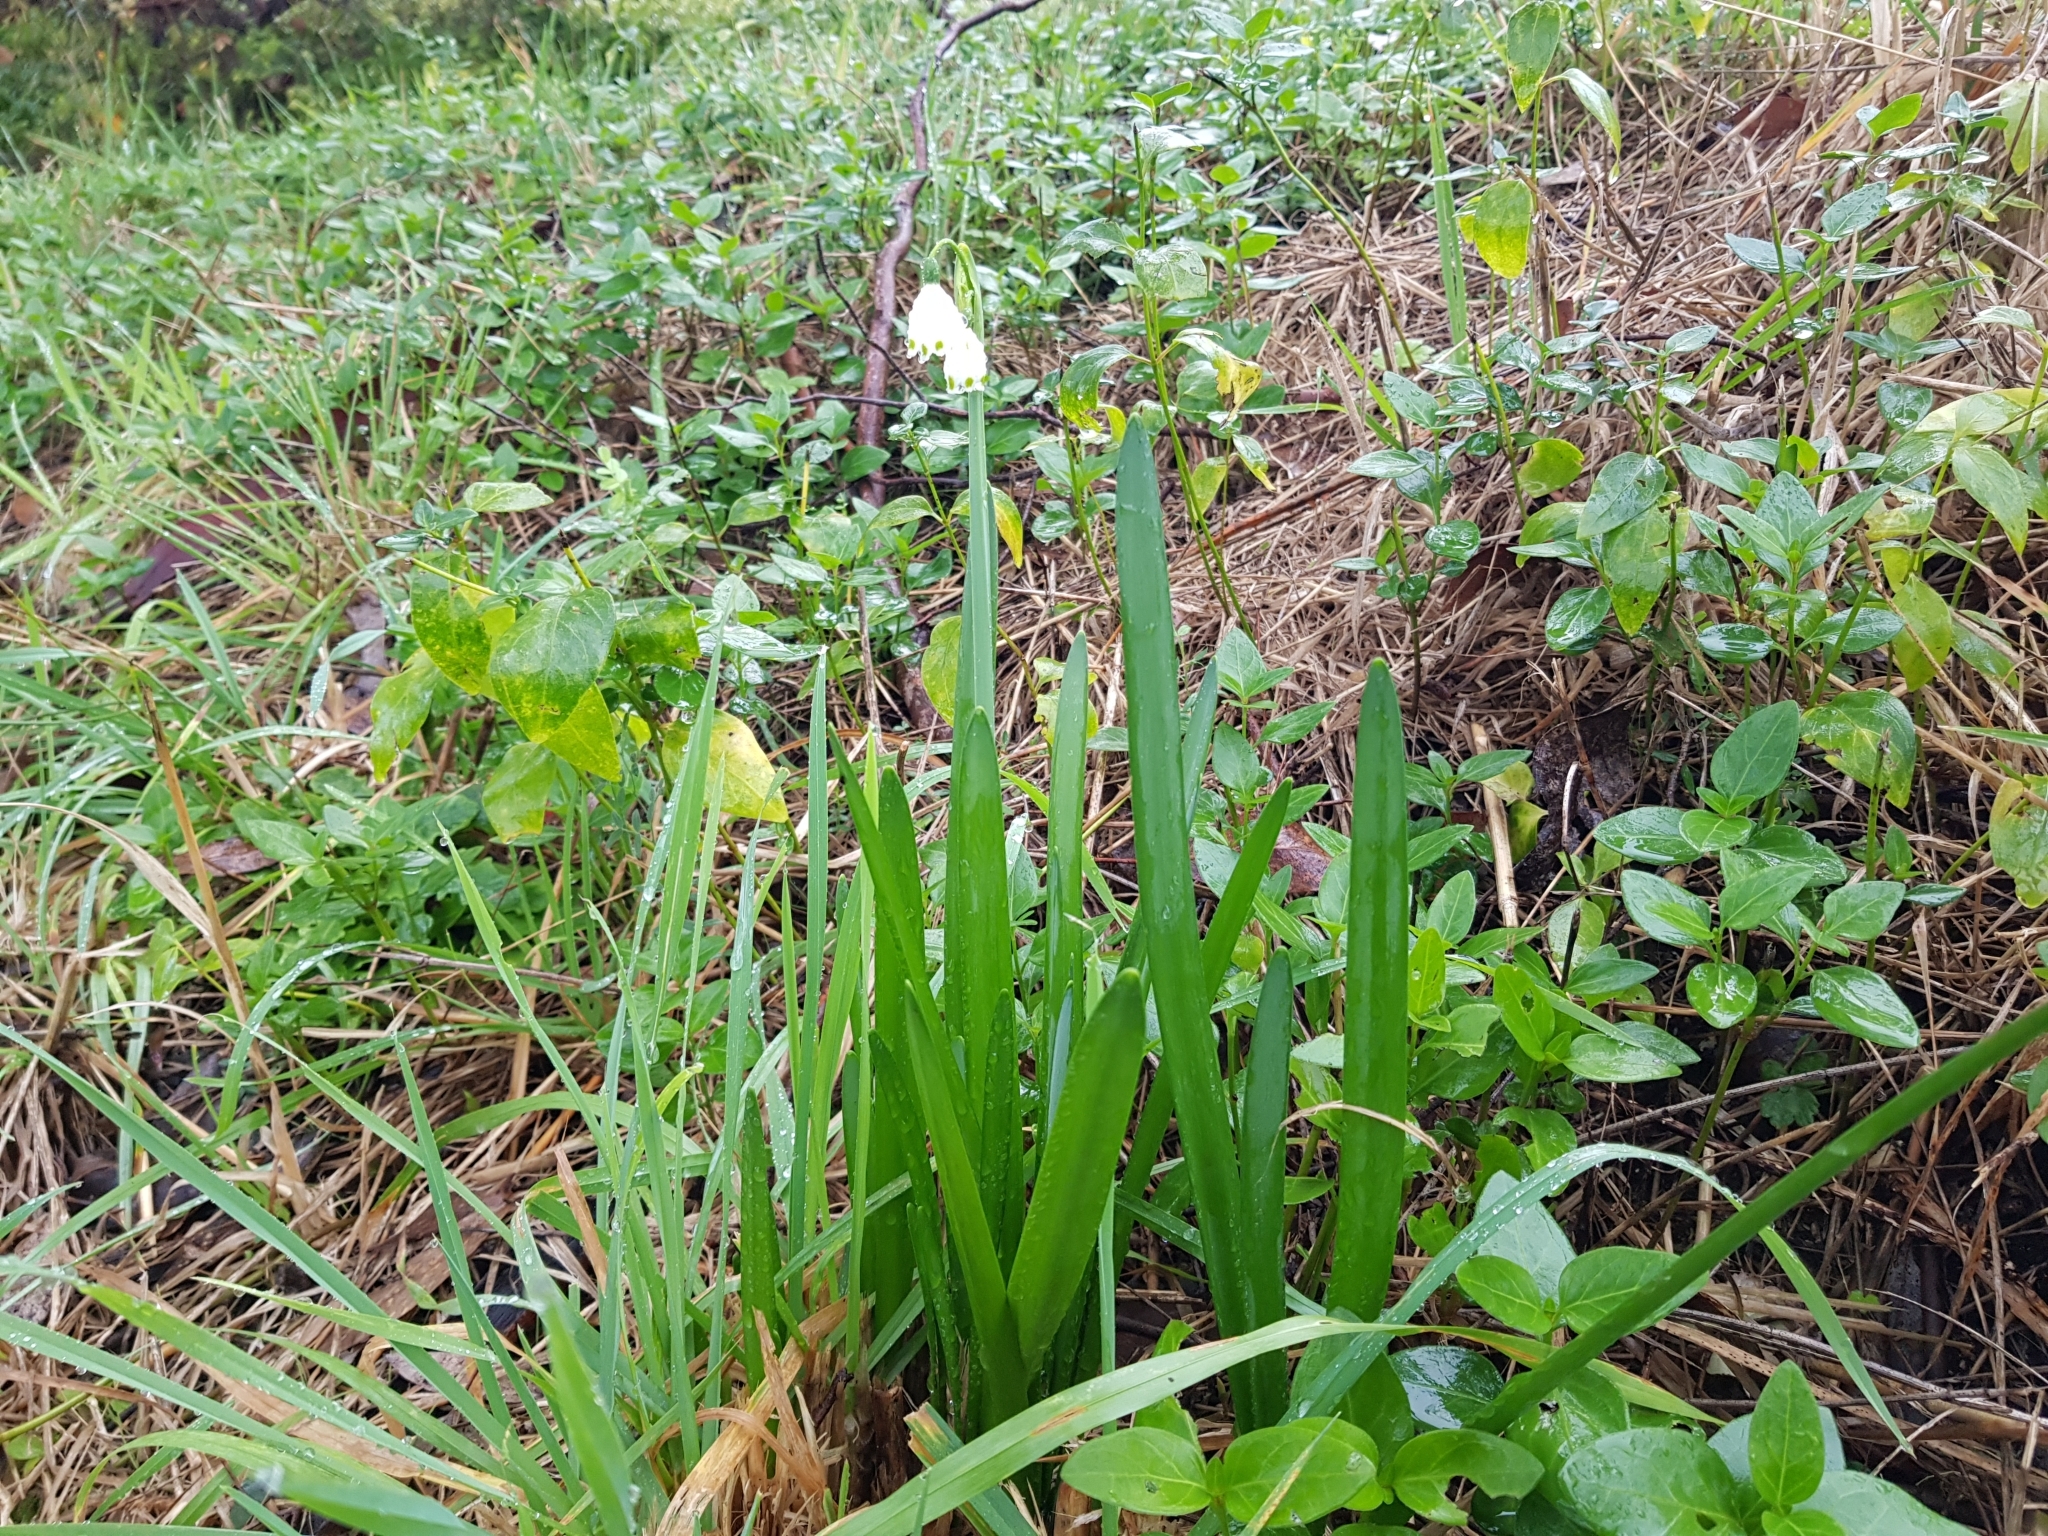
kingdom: Plantae
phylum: Tracheophyta
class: Liliopsida
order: Asparagales
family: Amaryllidaceae
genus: Leucojum
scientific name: Leucojum aestivum
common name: Summer snowflake
